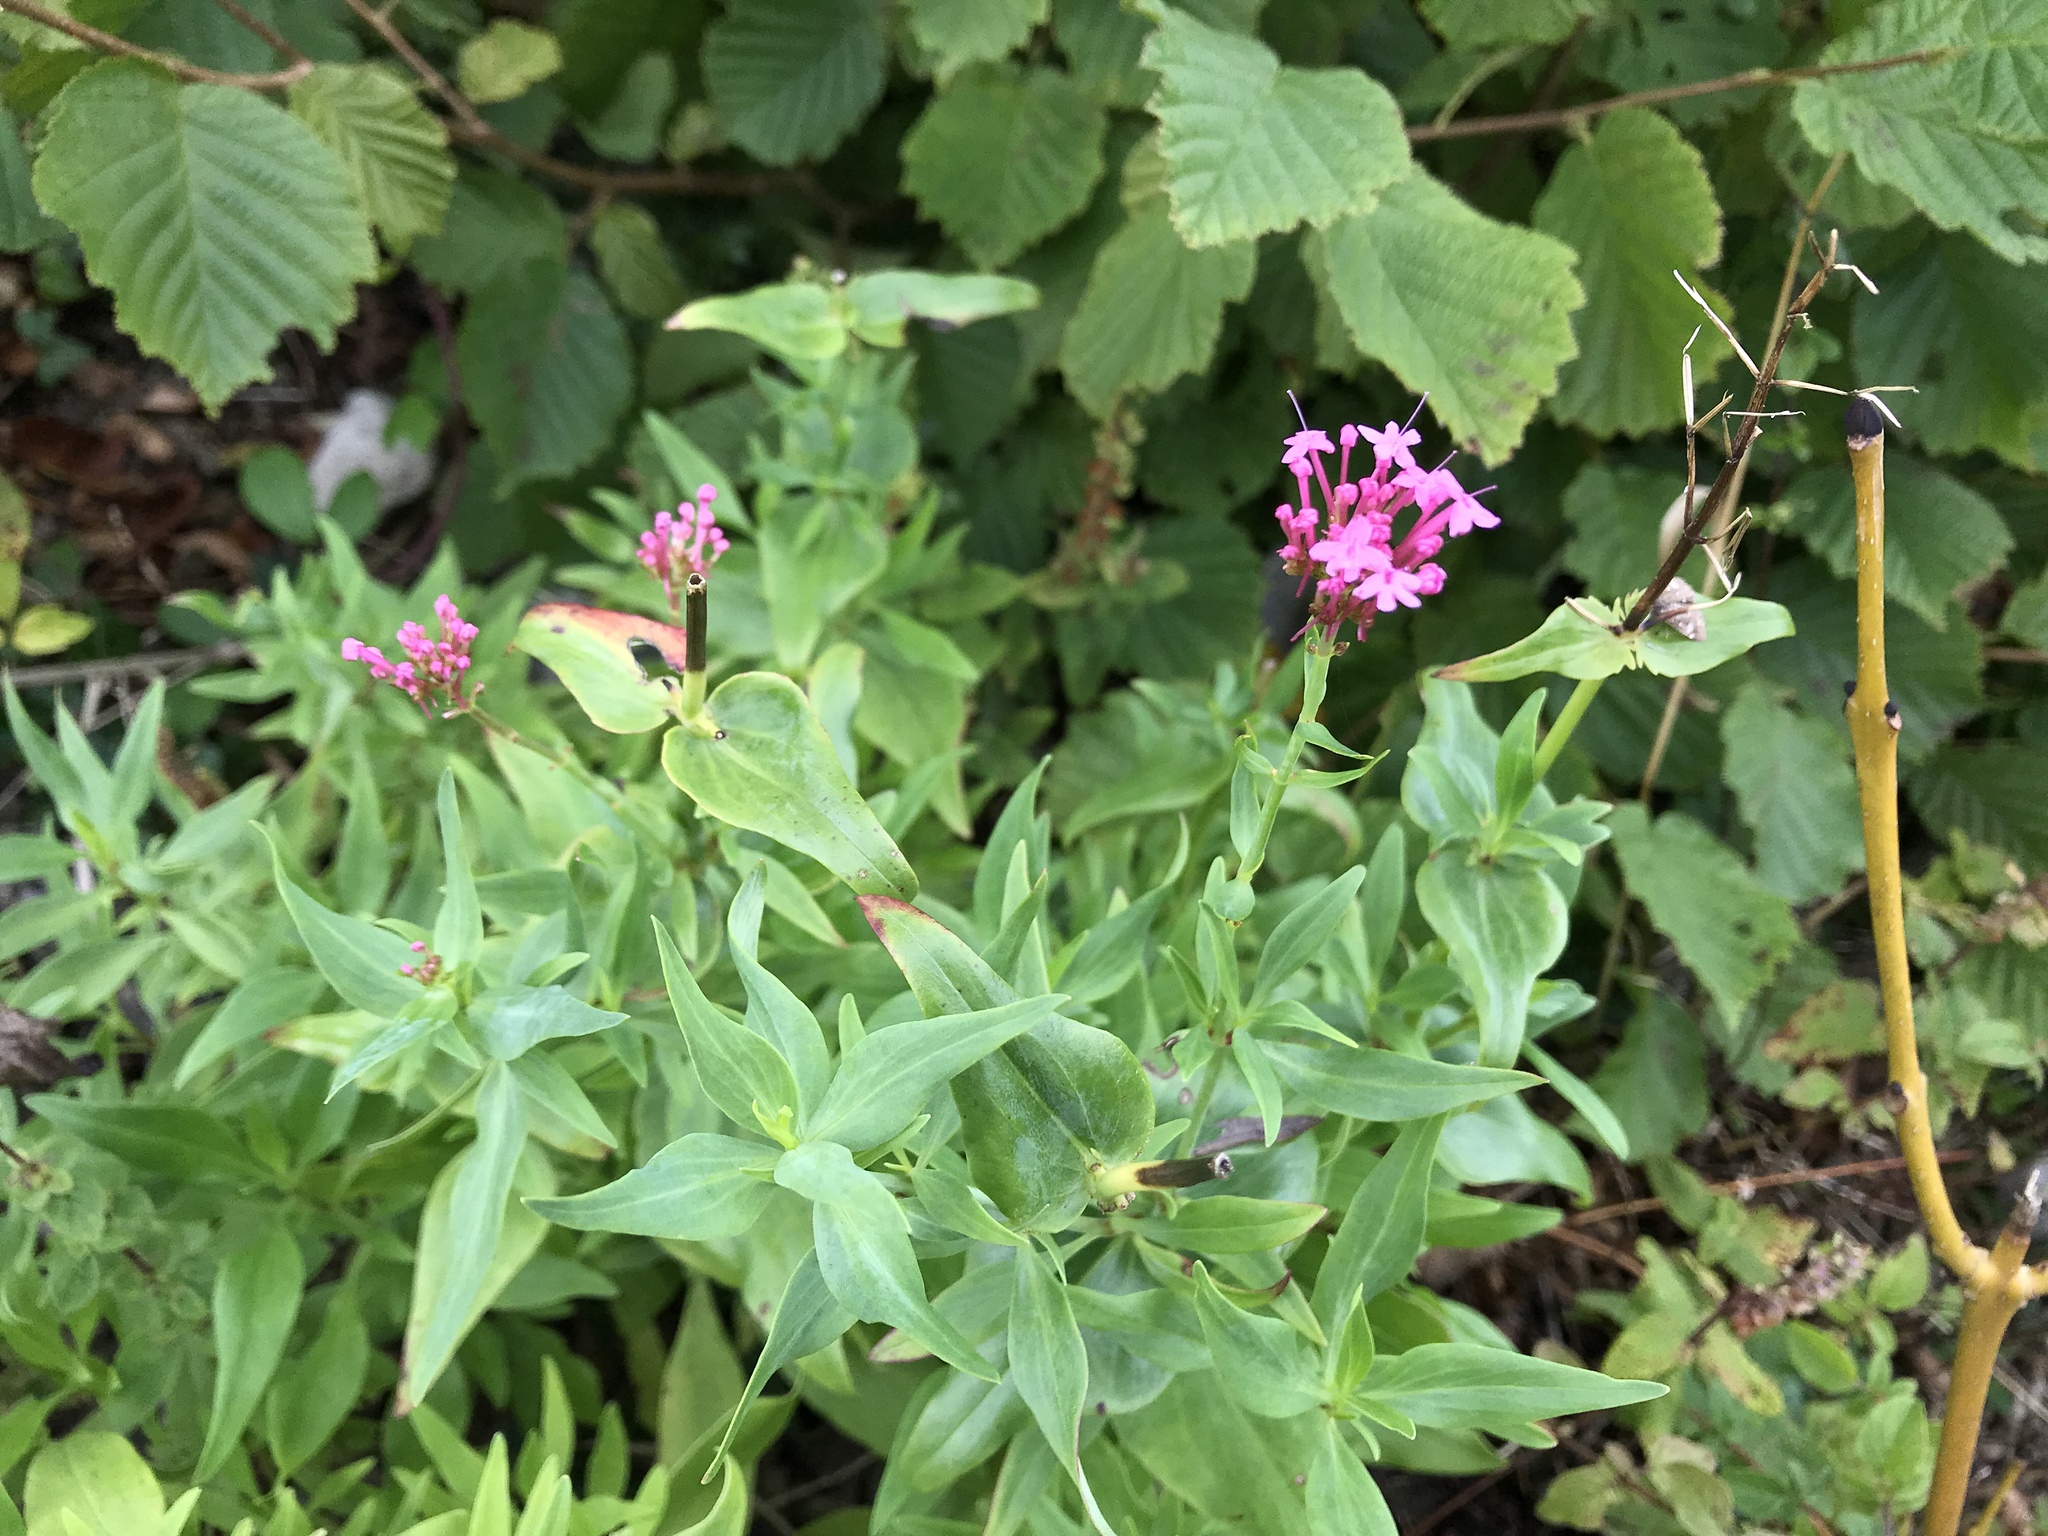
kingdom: Plantae
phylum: Tracheophyta
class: Magnoliopsida
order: Dipsacales
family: Caprifoliaceae
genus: Centranthus
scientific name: Centranthus ruber
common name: Red valerian
